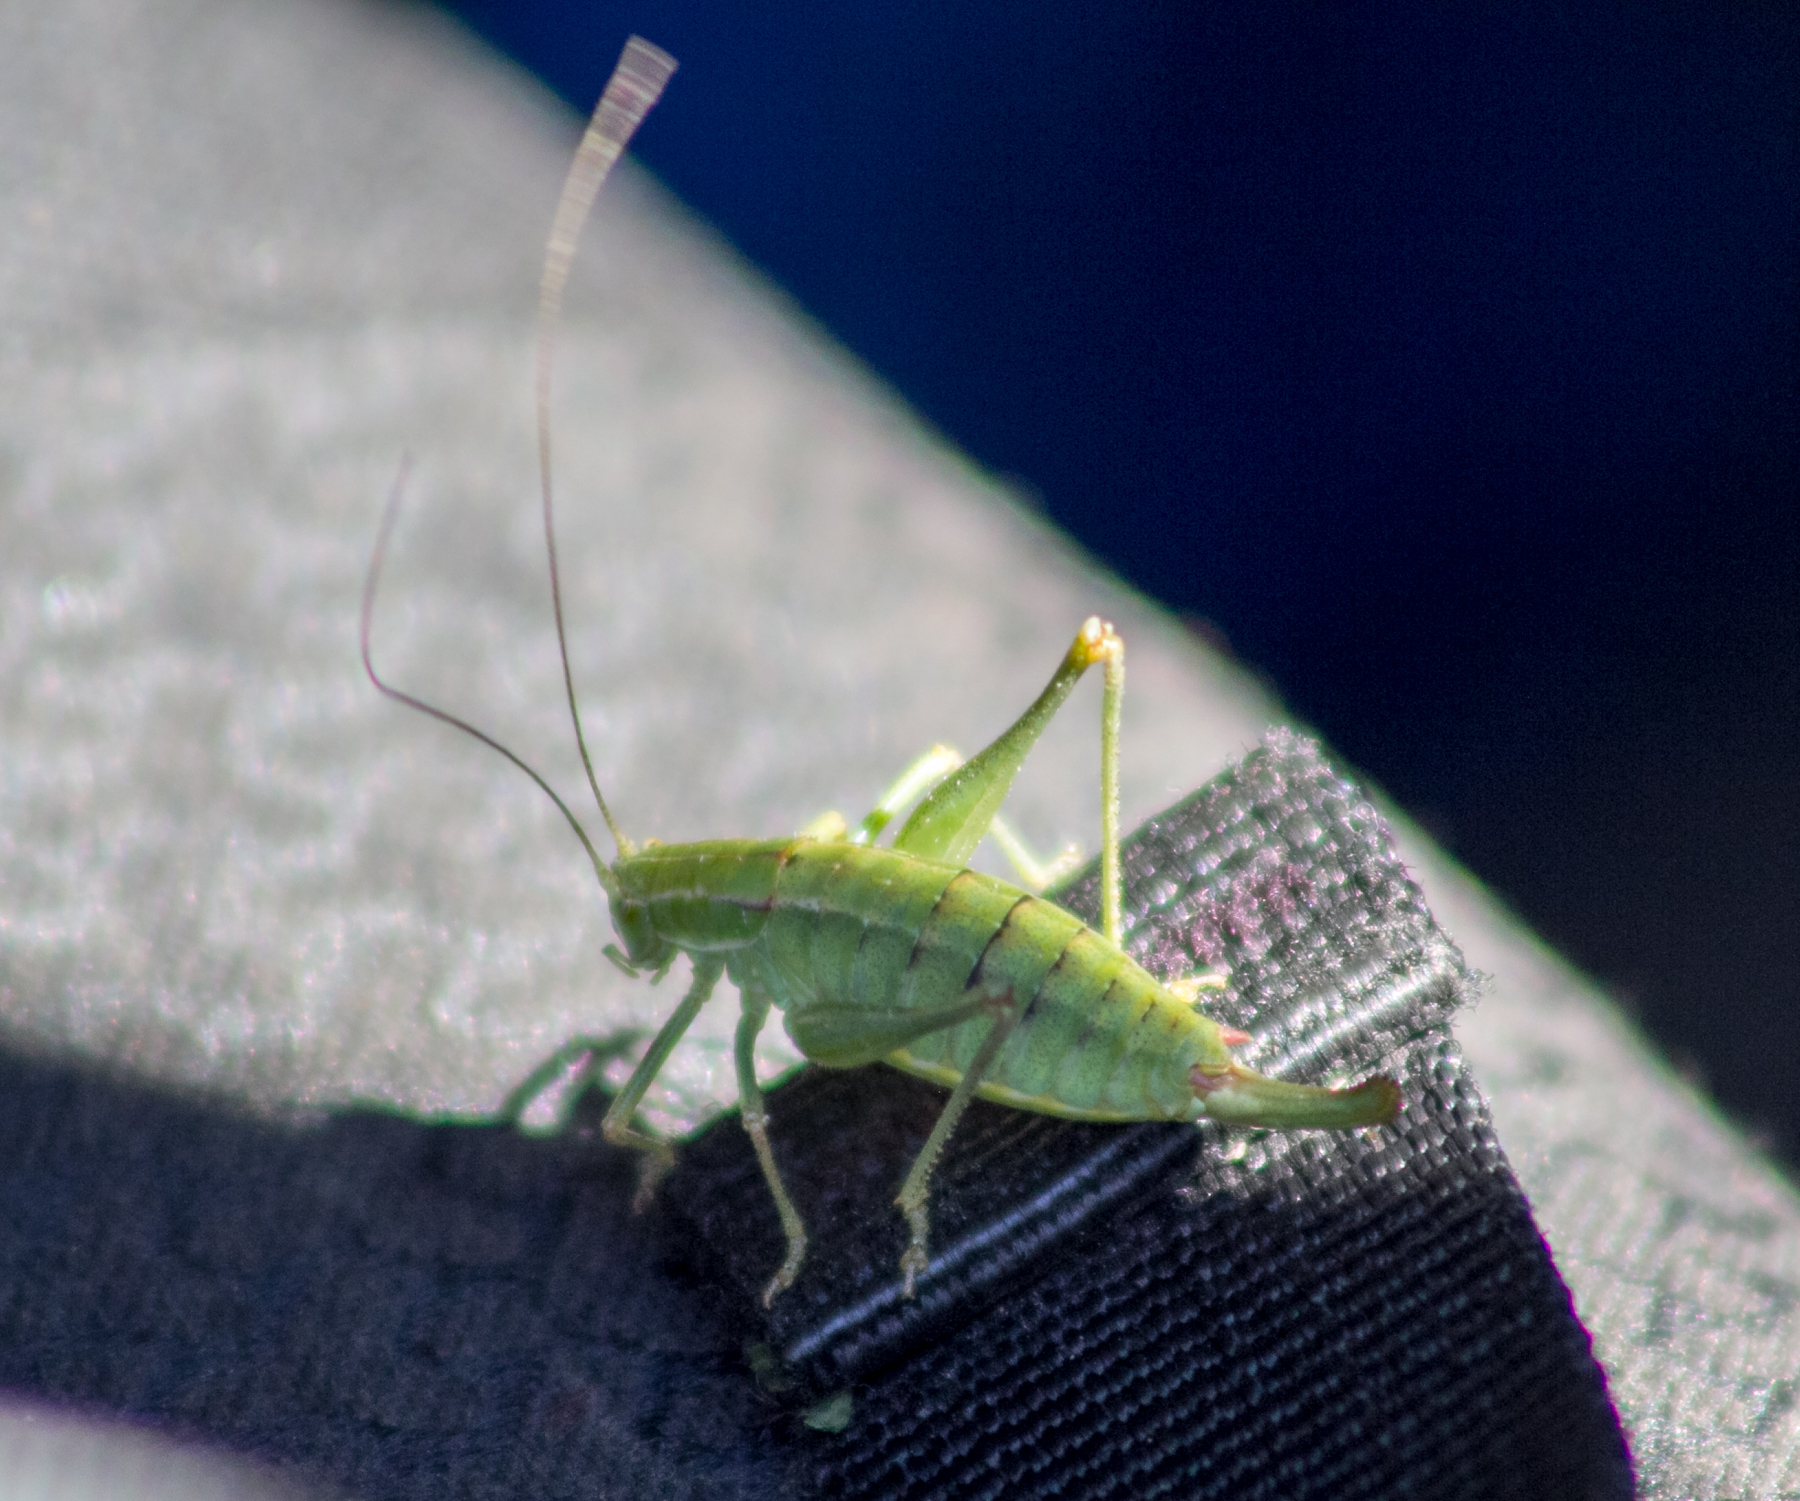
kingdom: Animalia
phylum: Arthropoda
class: Insecta
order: Orthoptera
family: Tettigoniidae
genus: Poecilimon
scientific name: Poecilimon intermedius
